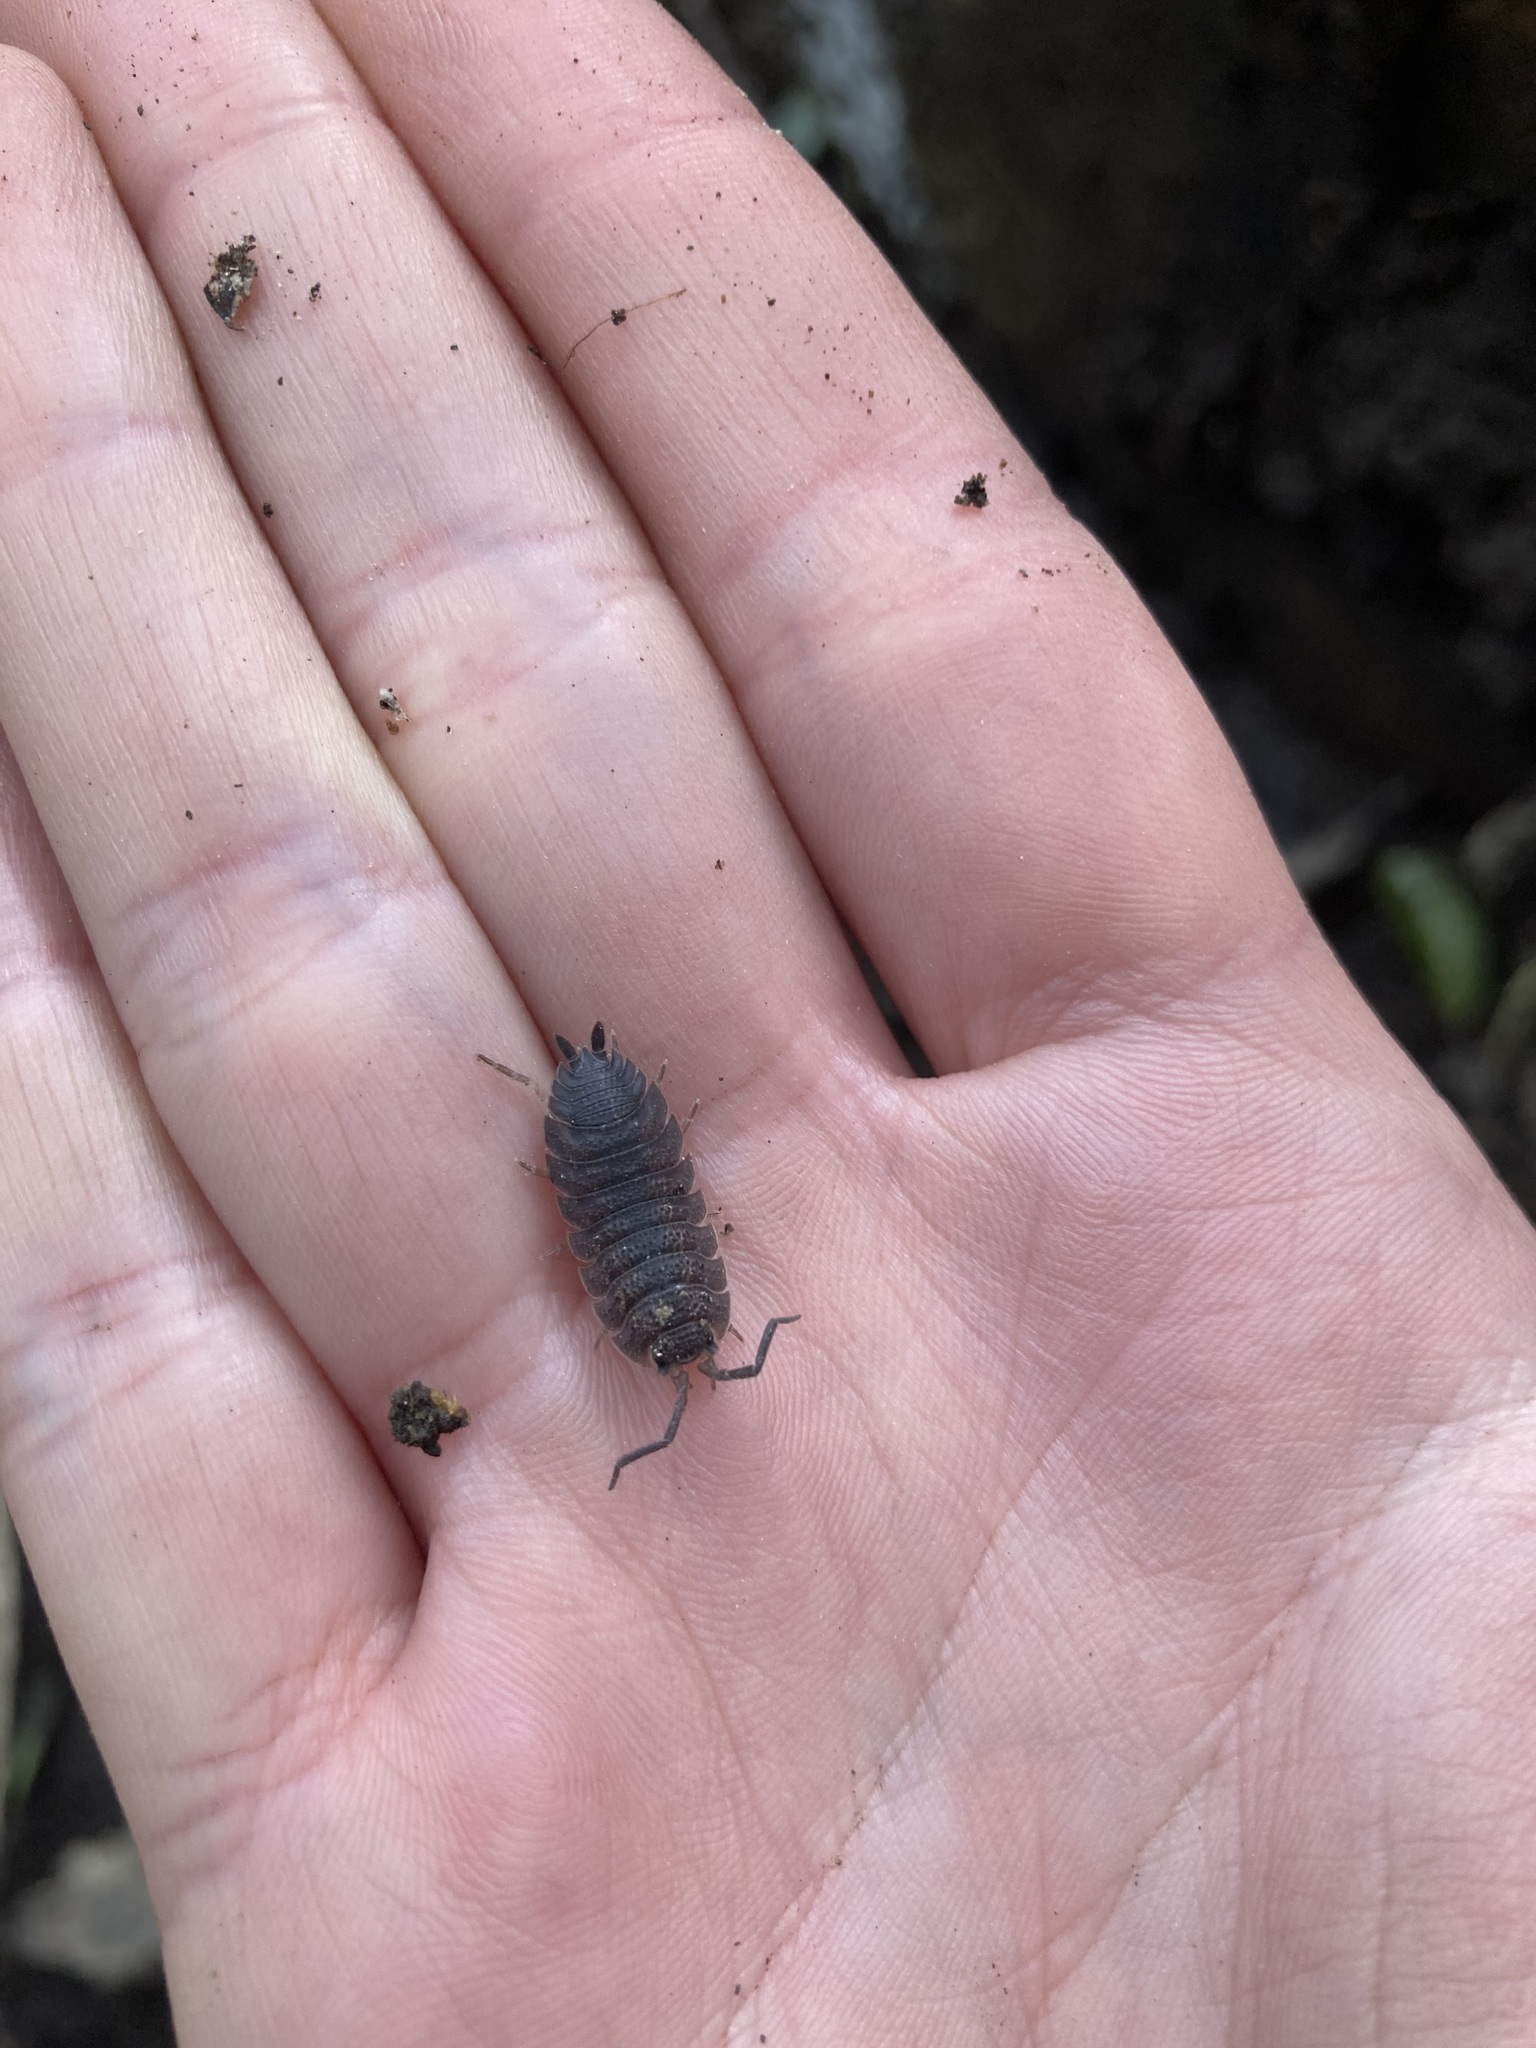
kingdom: Animalia
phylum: Arthropoda
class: Malacostraca
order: Isopoda
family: Porcellionidae
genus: Porcellio
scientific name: Porcellio scaber
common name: Common rough woodlouse
